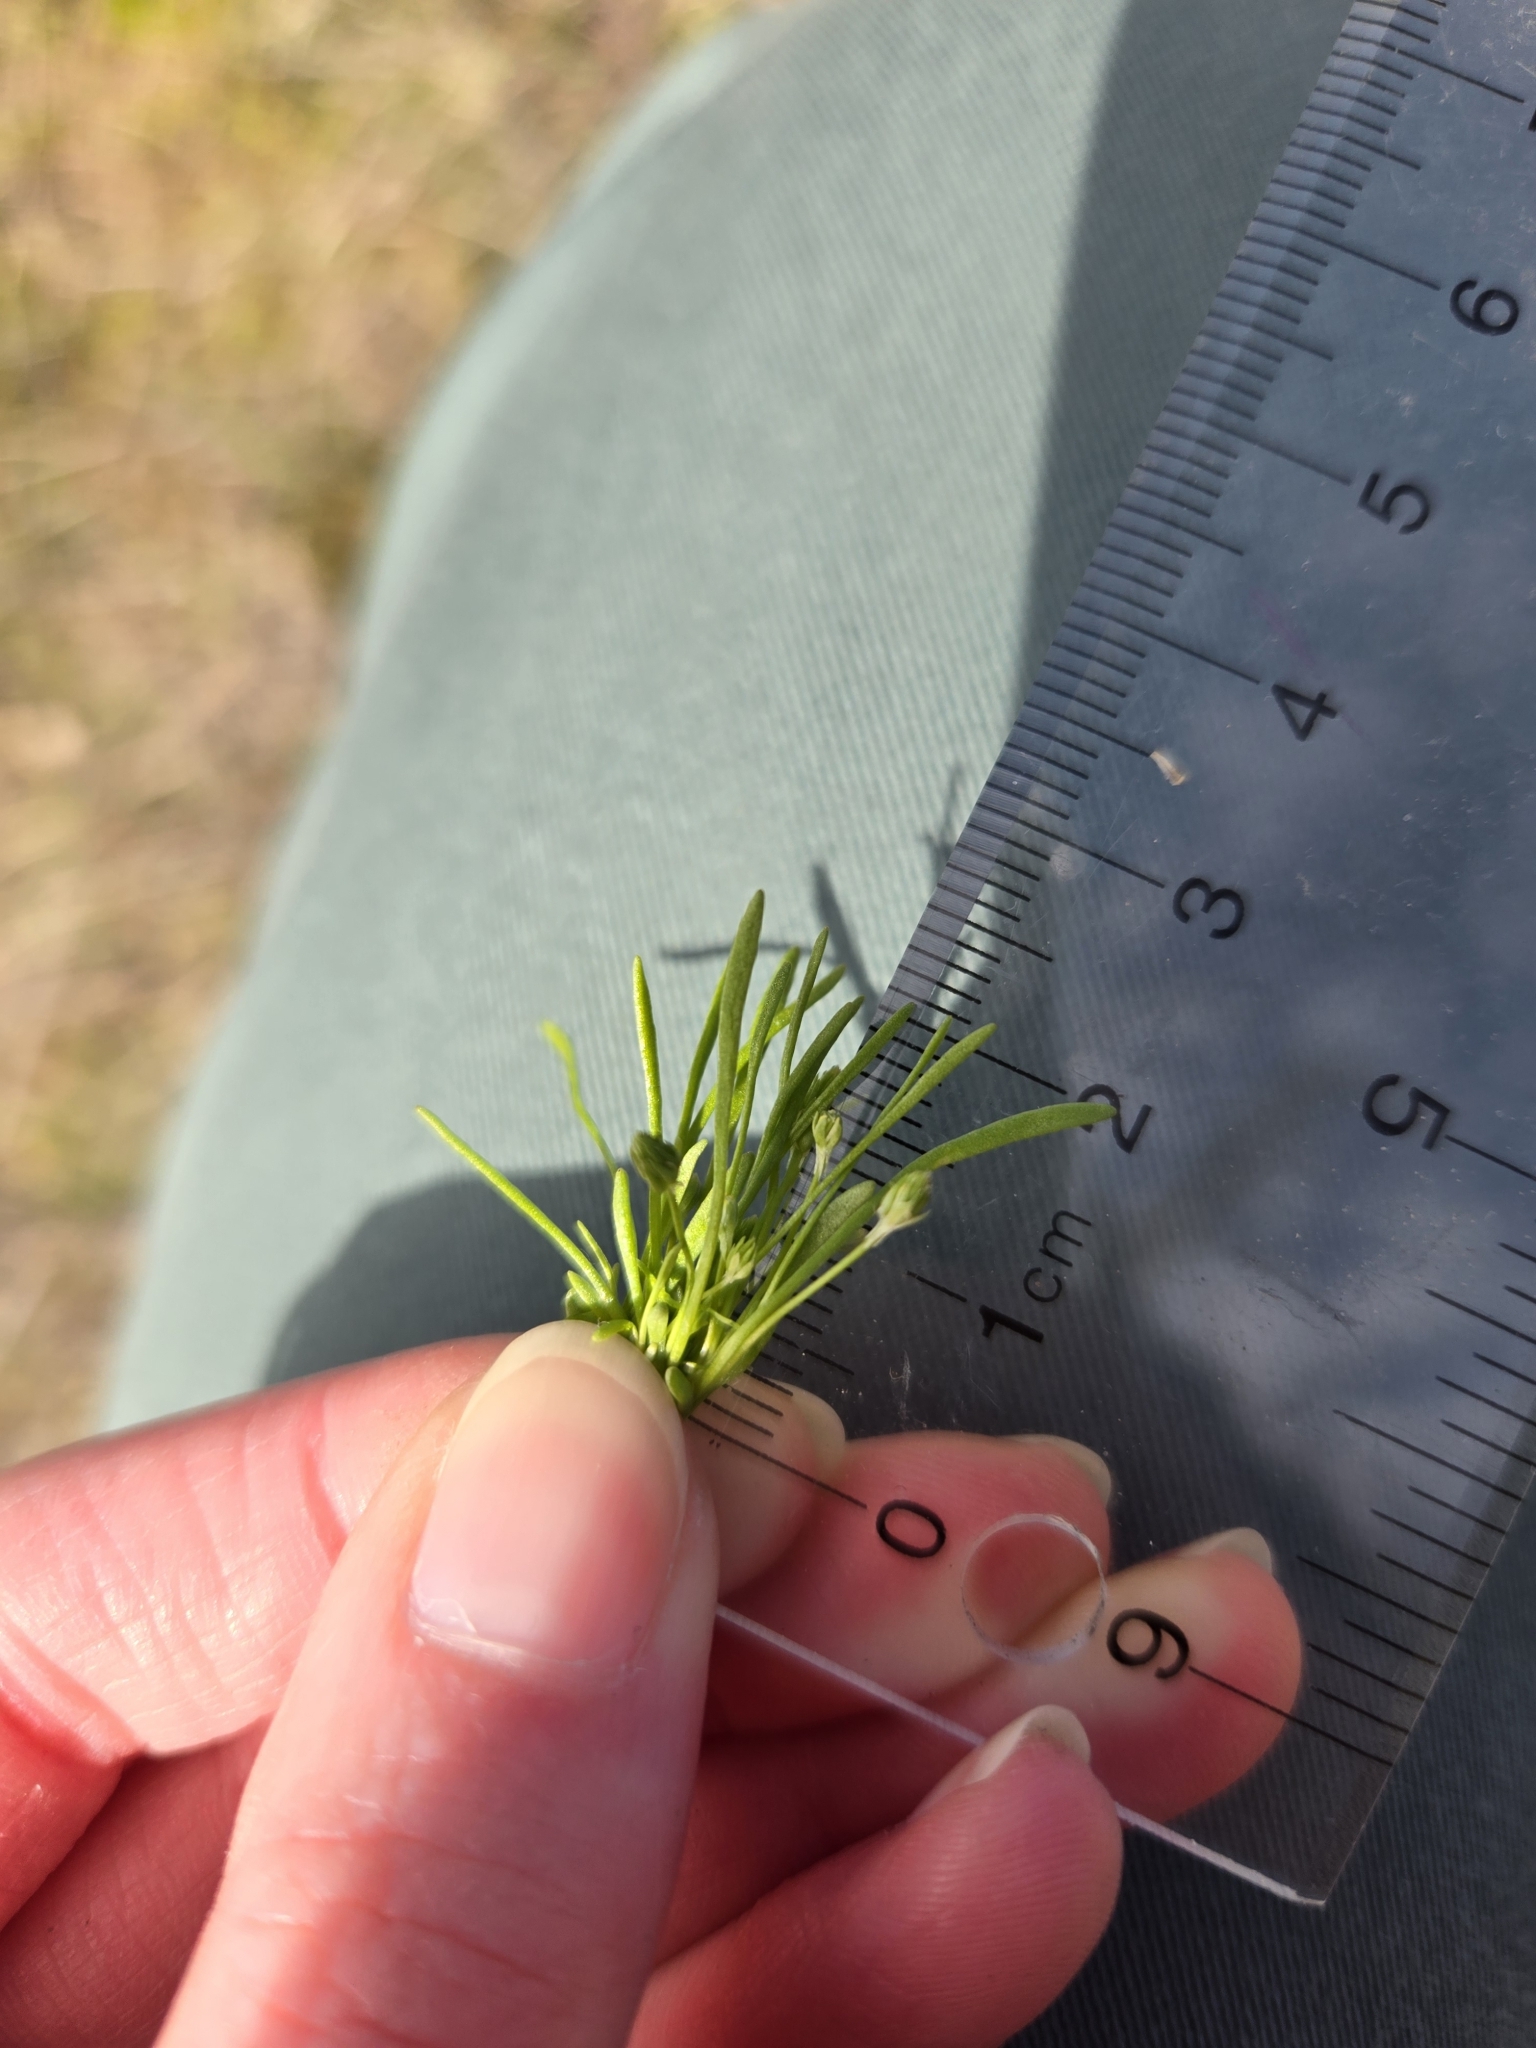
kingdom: Plantae
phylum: Tracheophyta
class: Magnoliopsida
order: Ranunculales
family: Ranunculaceae
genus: Myosurus
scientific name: Myosurus apetalus
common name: Mousetail
